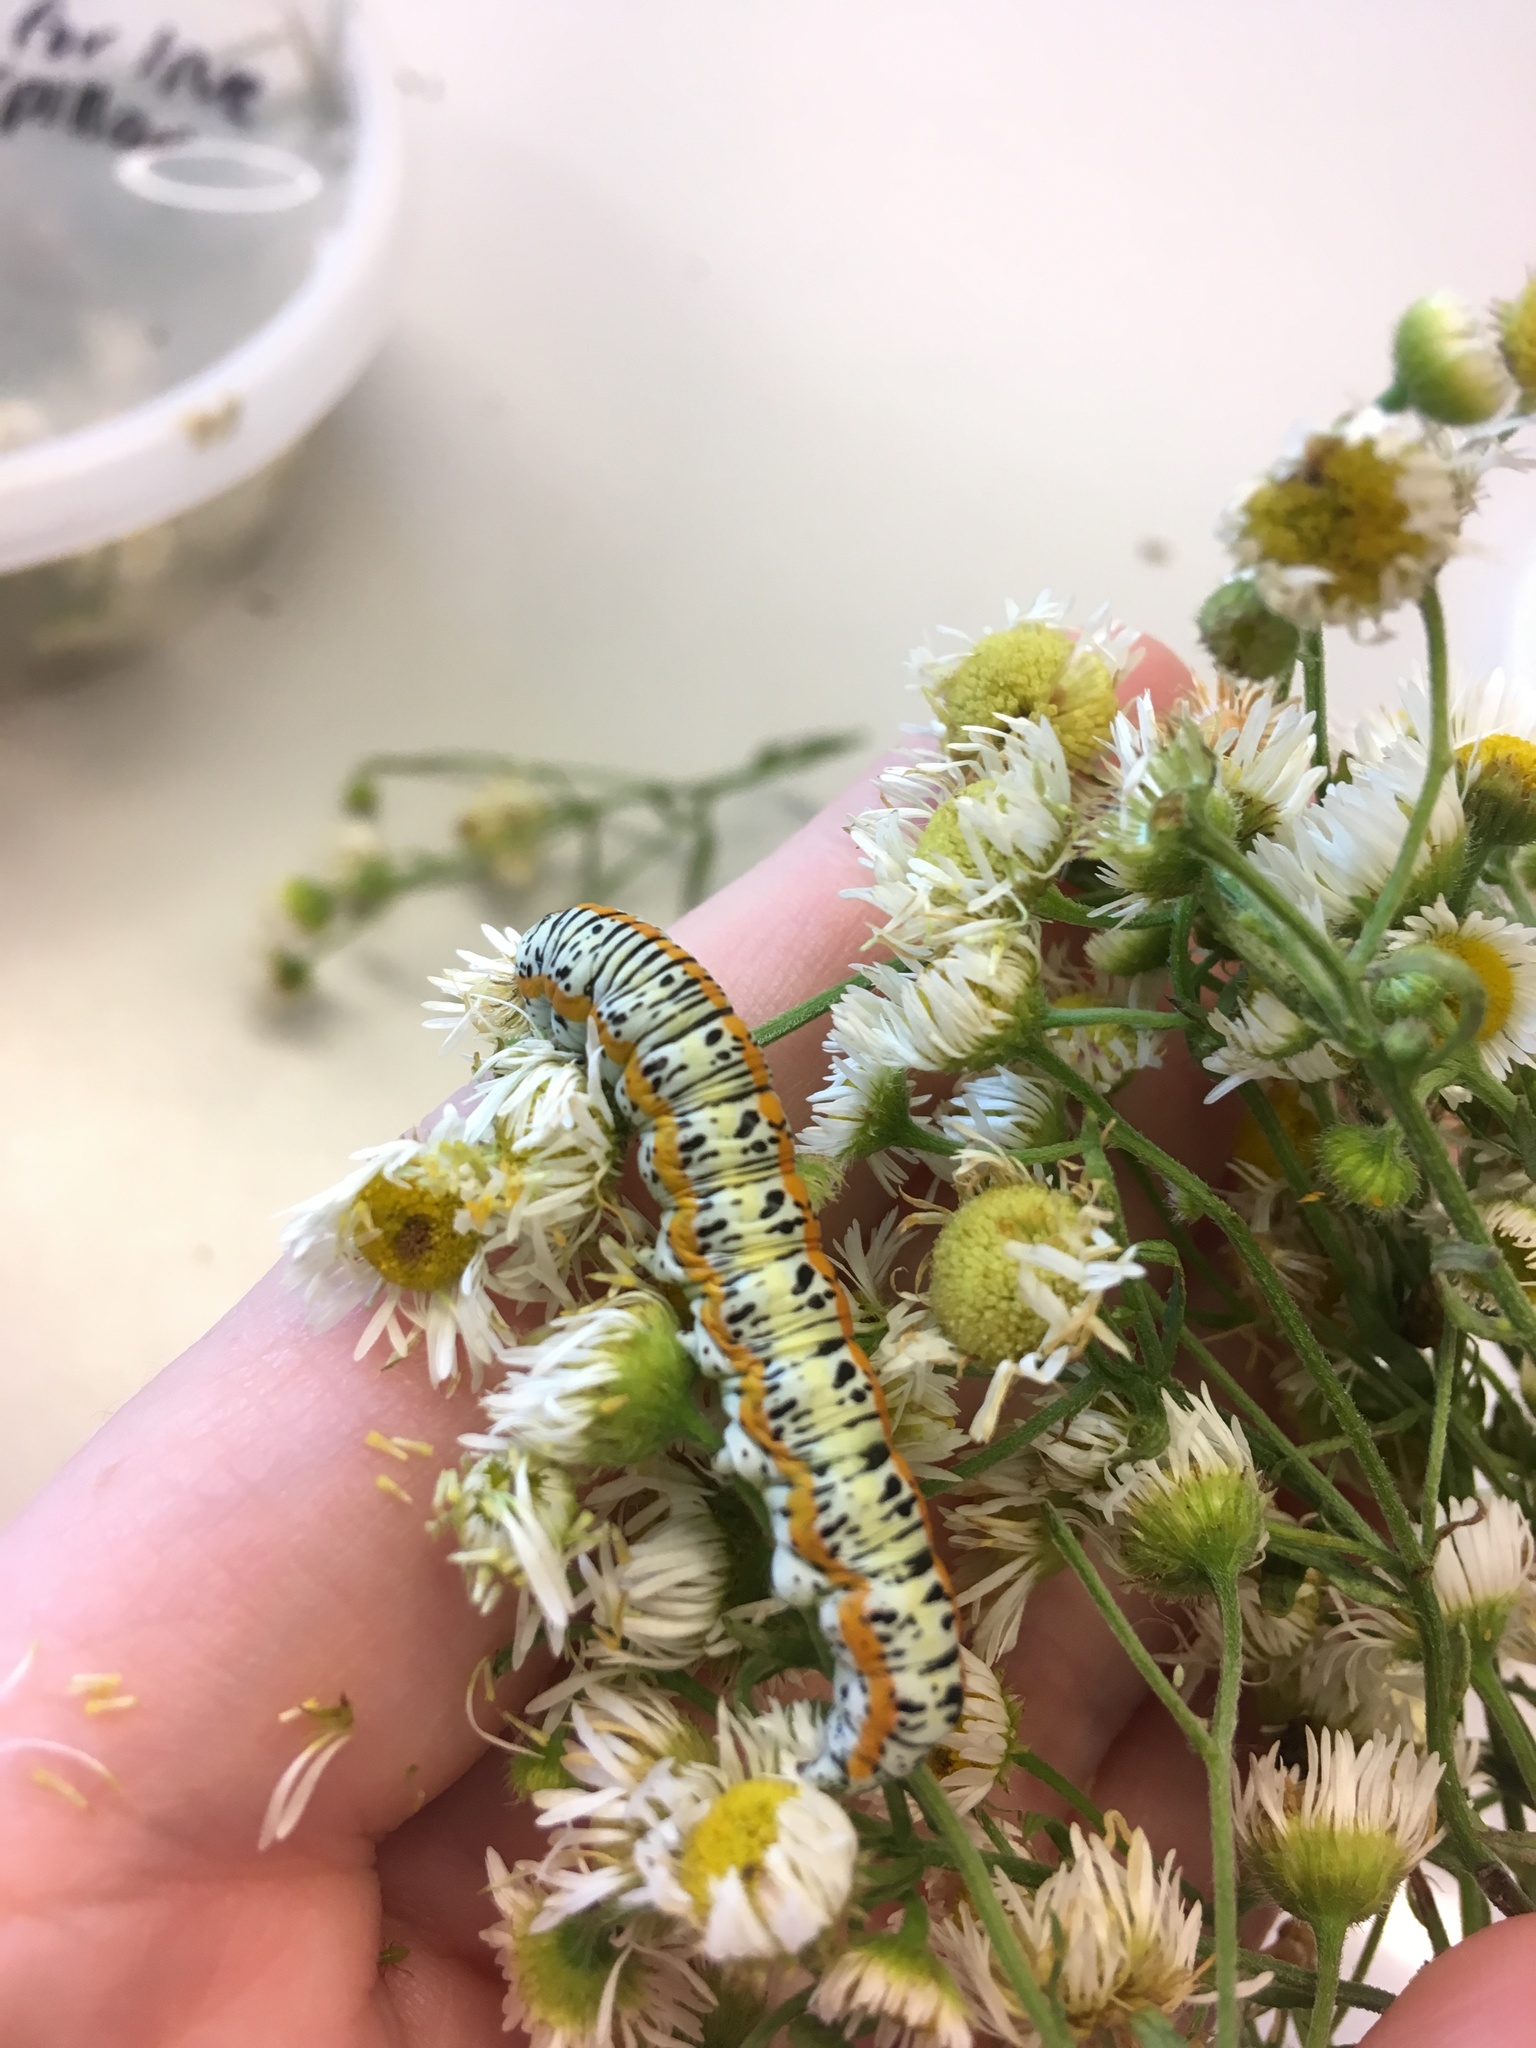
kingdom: Animalia
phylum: Arthropoda
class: Insecta
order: Lepidoptera
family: Noctuidae
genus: Cucullia
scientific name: Cucullia laetifica
